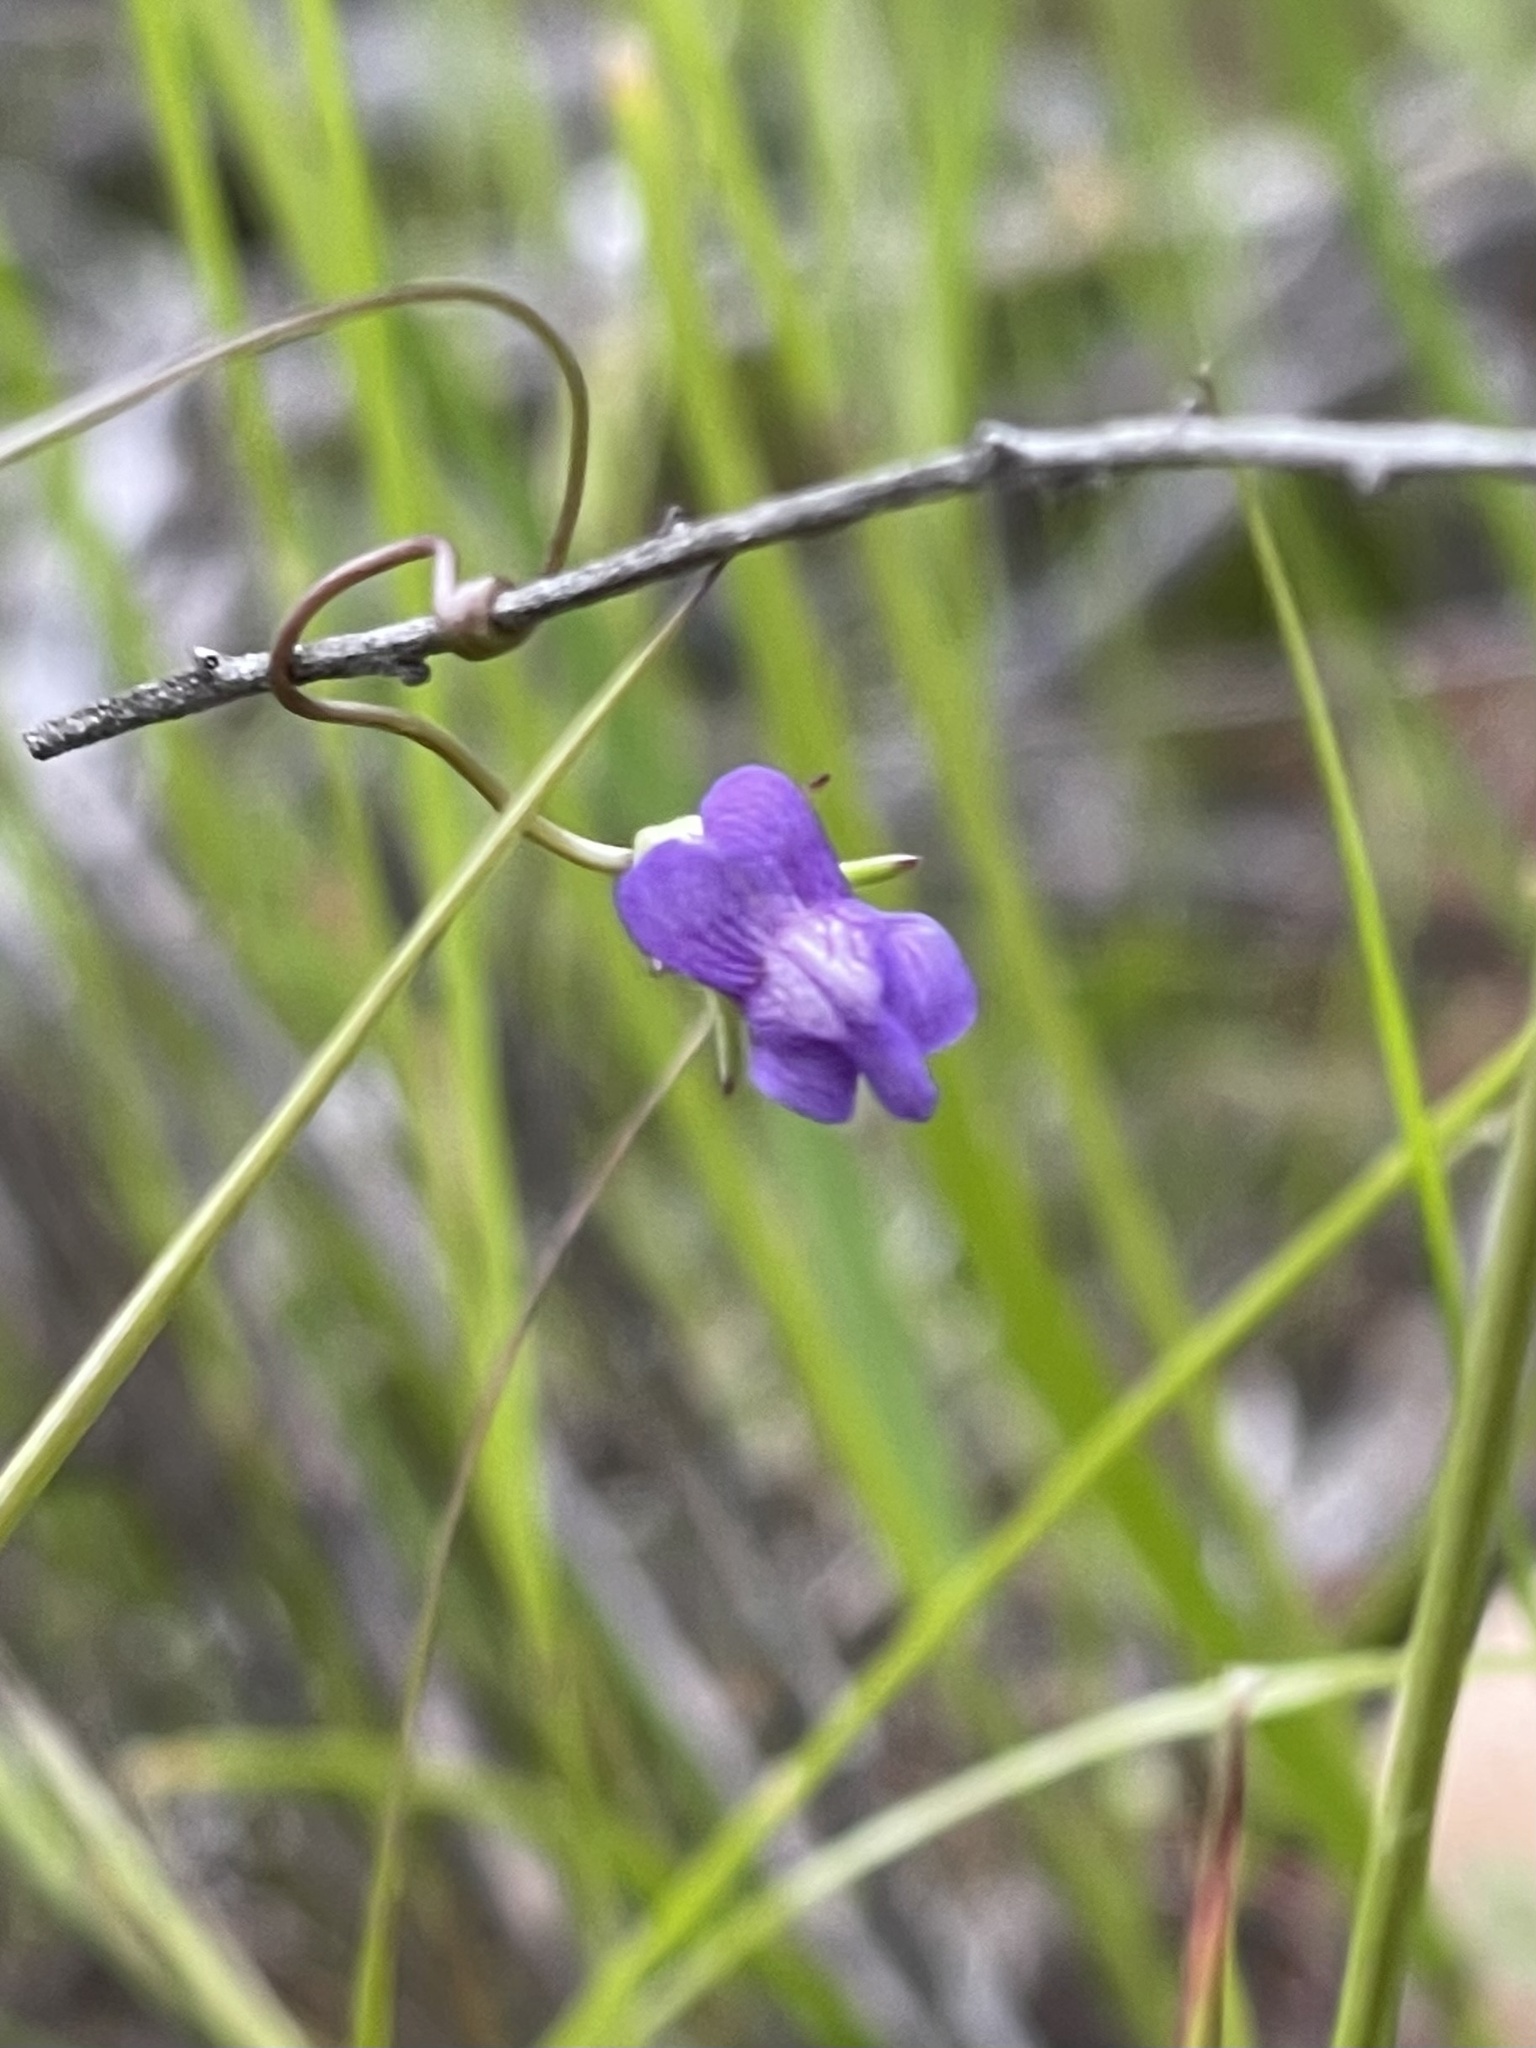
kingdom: Plantae
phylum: Tracheophyta
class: Magnoliopsida
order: Lamiales
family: Plantaginaceae
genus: Neogaerrhinum
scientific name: Neogaerrhinum strictum
